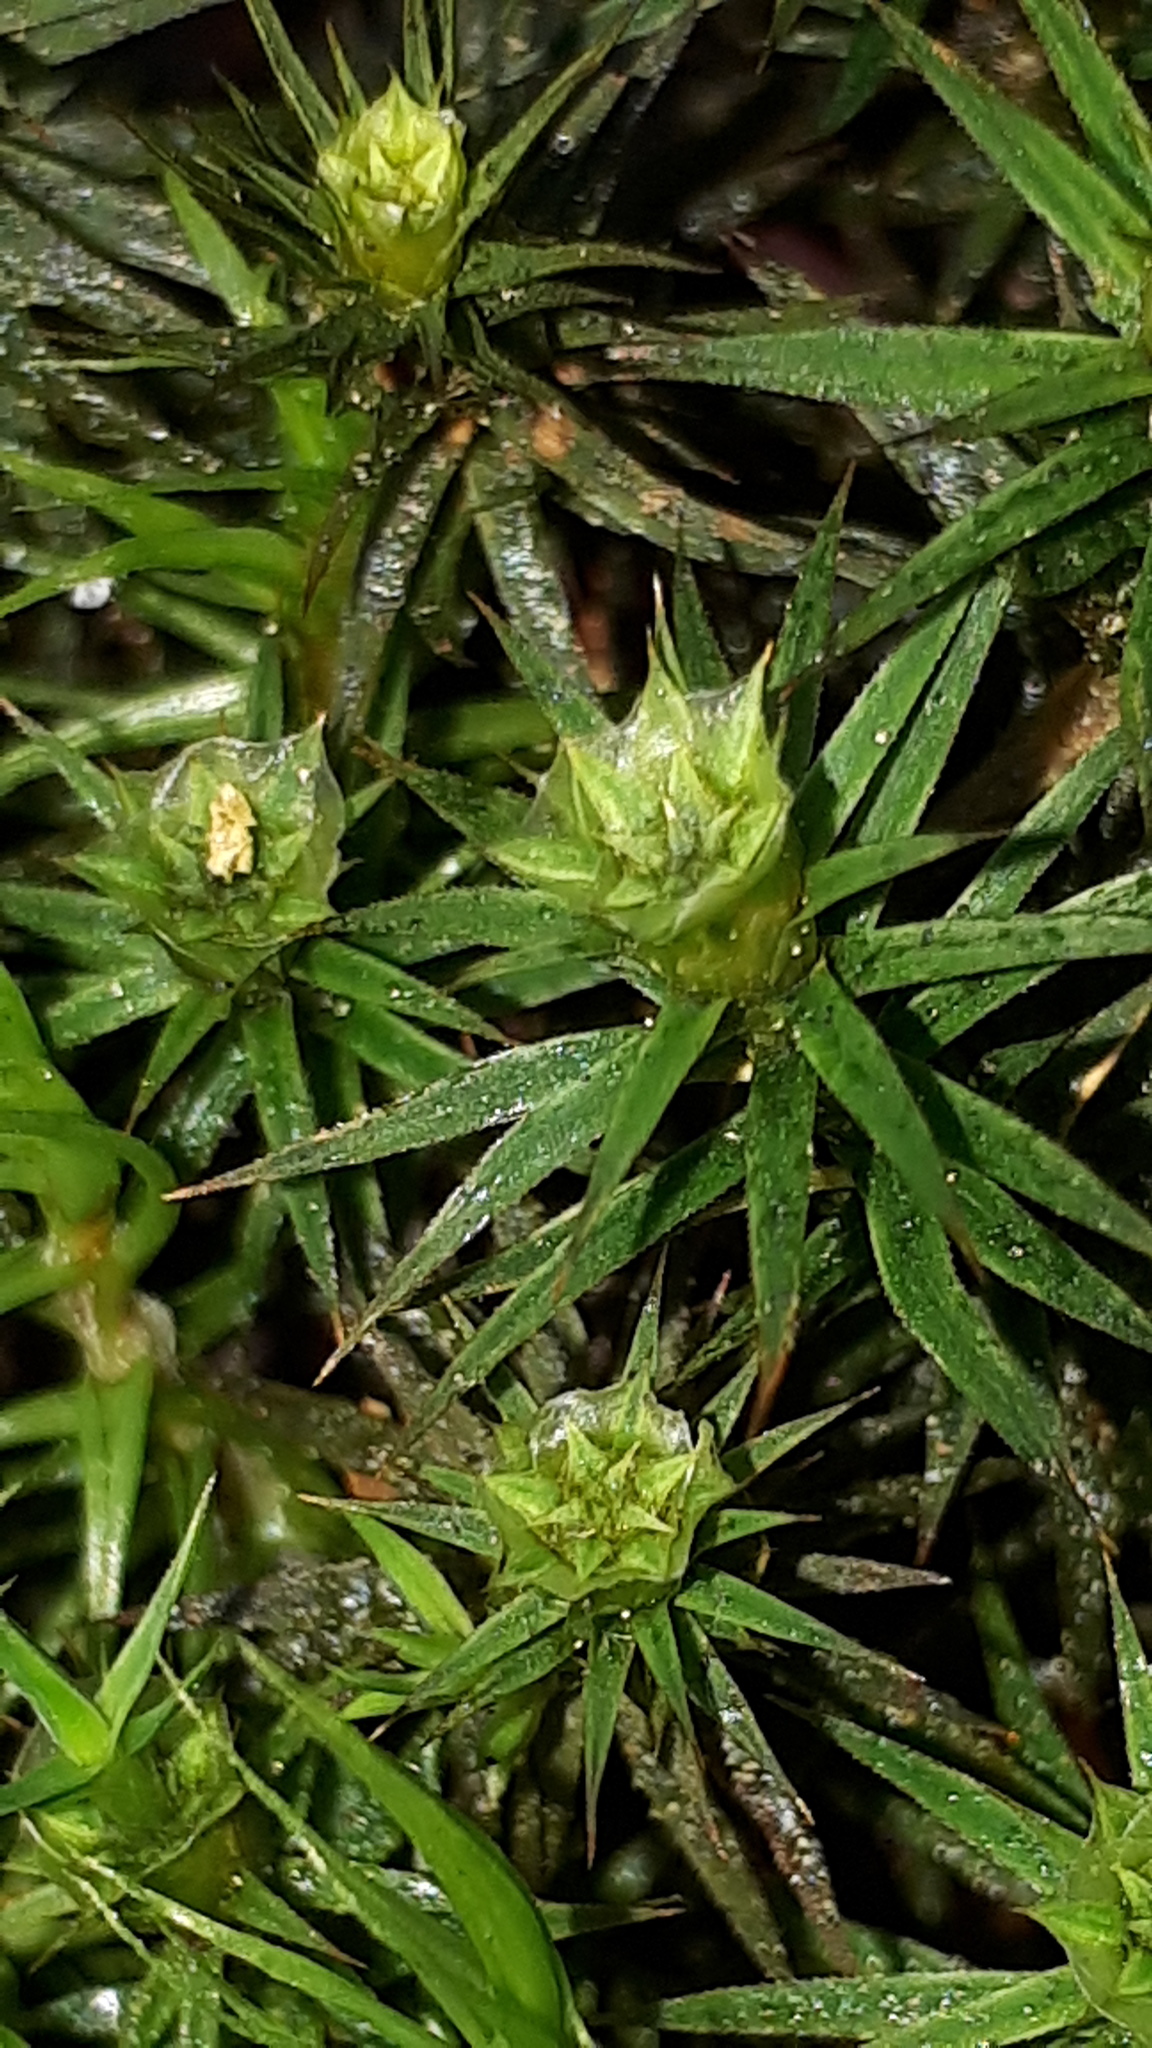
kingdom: Plantae
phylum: Bryophyta
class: Polytrichopsida
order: Polytrichales
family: Polytrichaceae
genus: Polytrichum
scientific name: Polytrichum formosum
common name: Bank haircap moss
